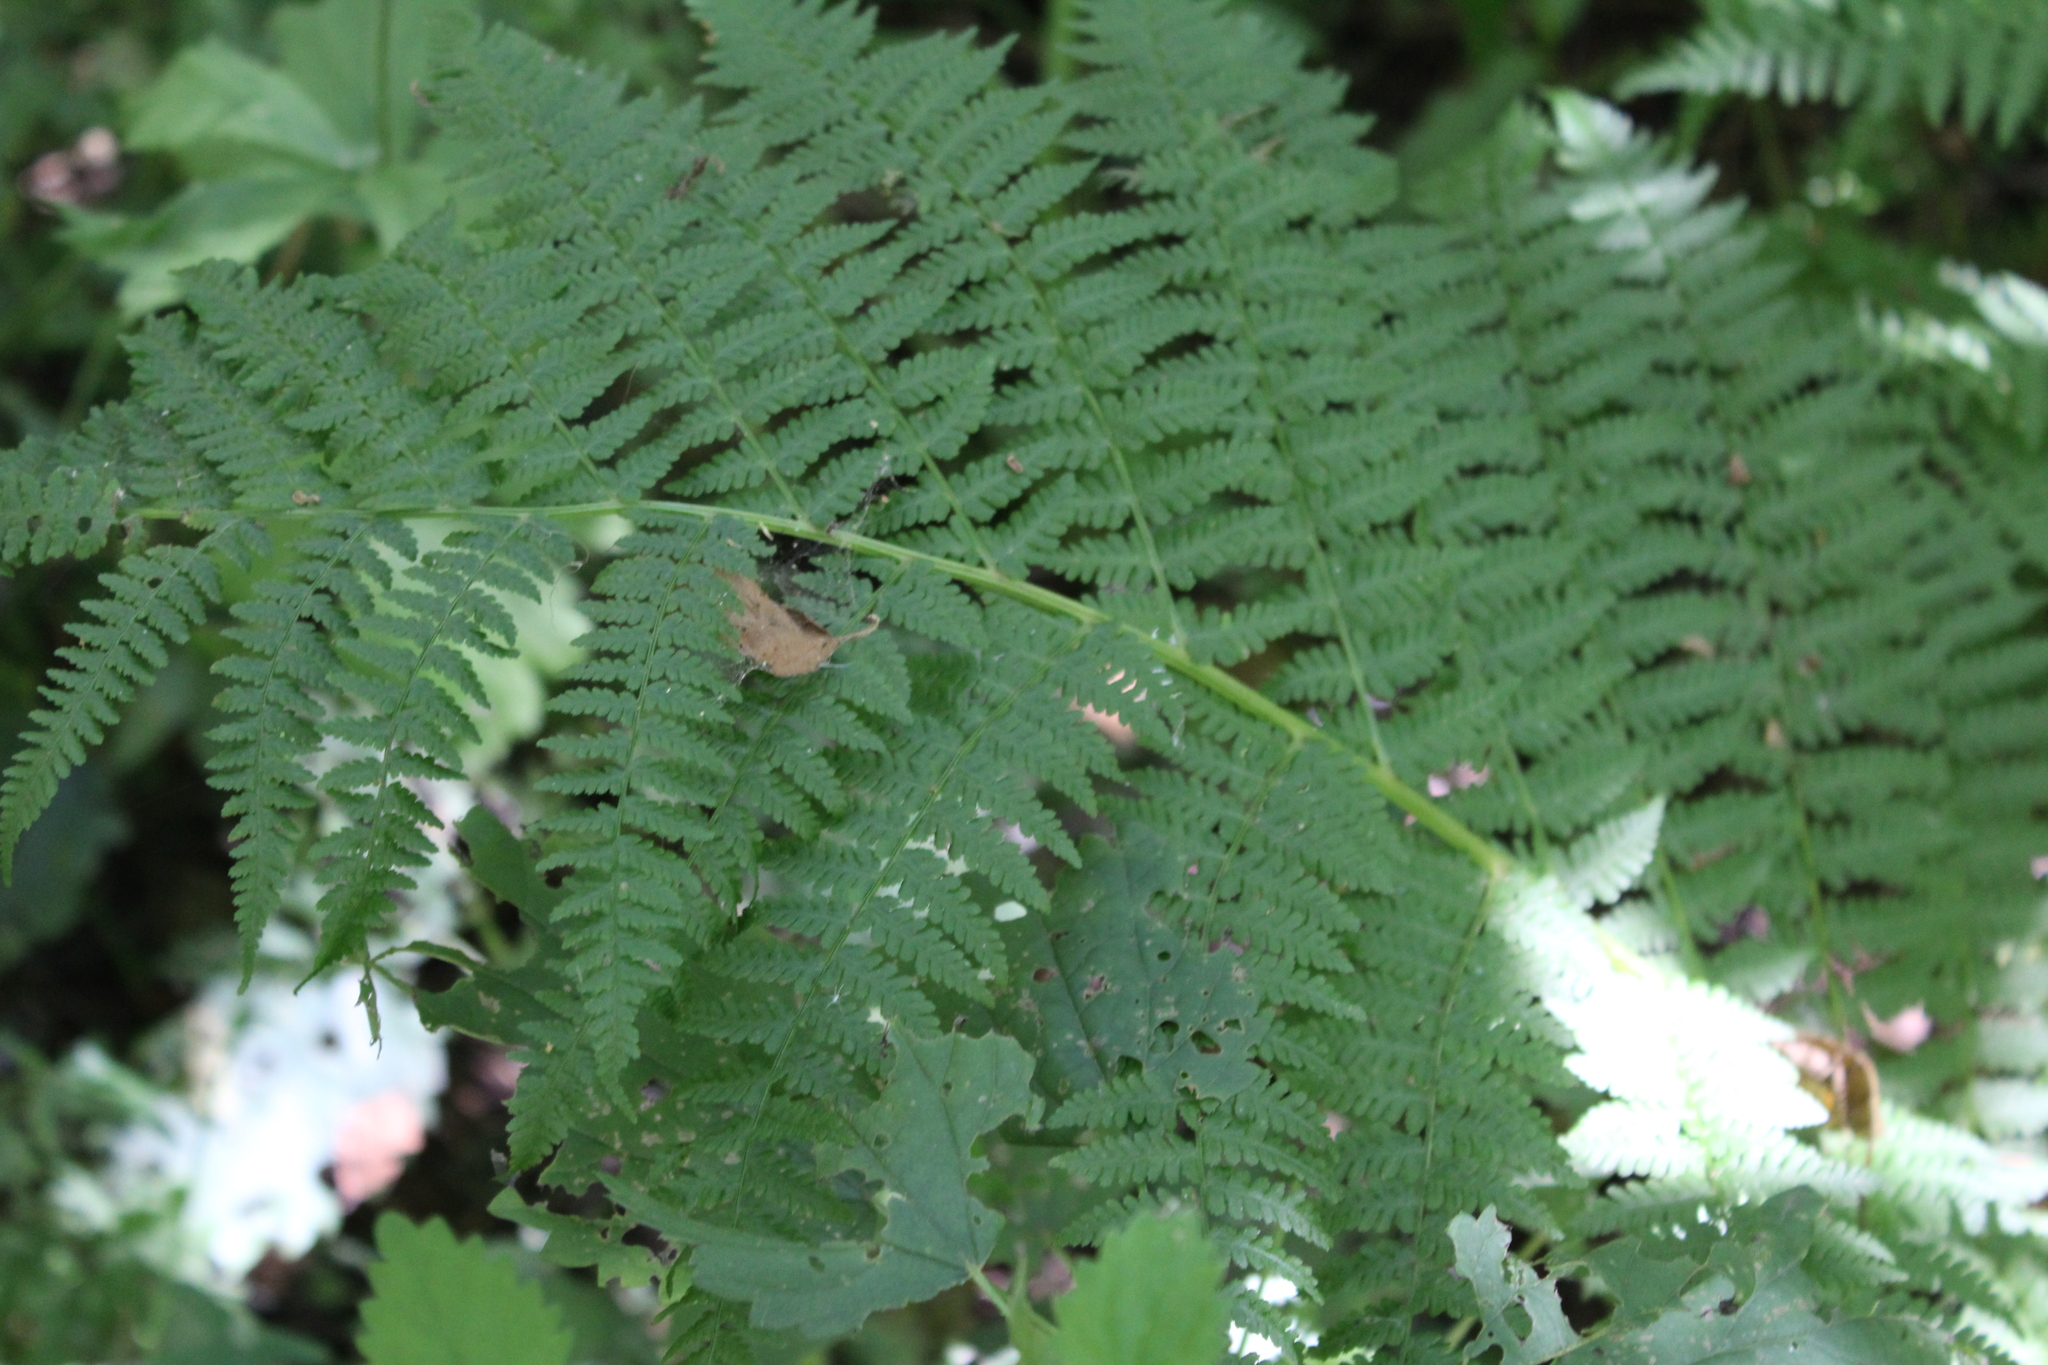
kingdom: Plantae
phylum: Tracheophyta
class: Polypodiopsida
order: Polypodiales
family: Athyriaceae
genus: Athyrium
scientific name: Athyrium filix-femina
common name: Lady fern
